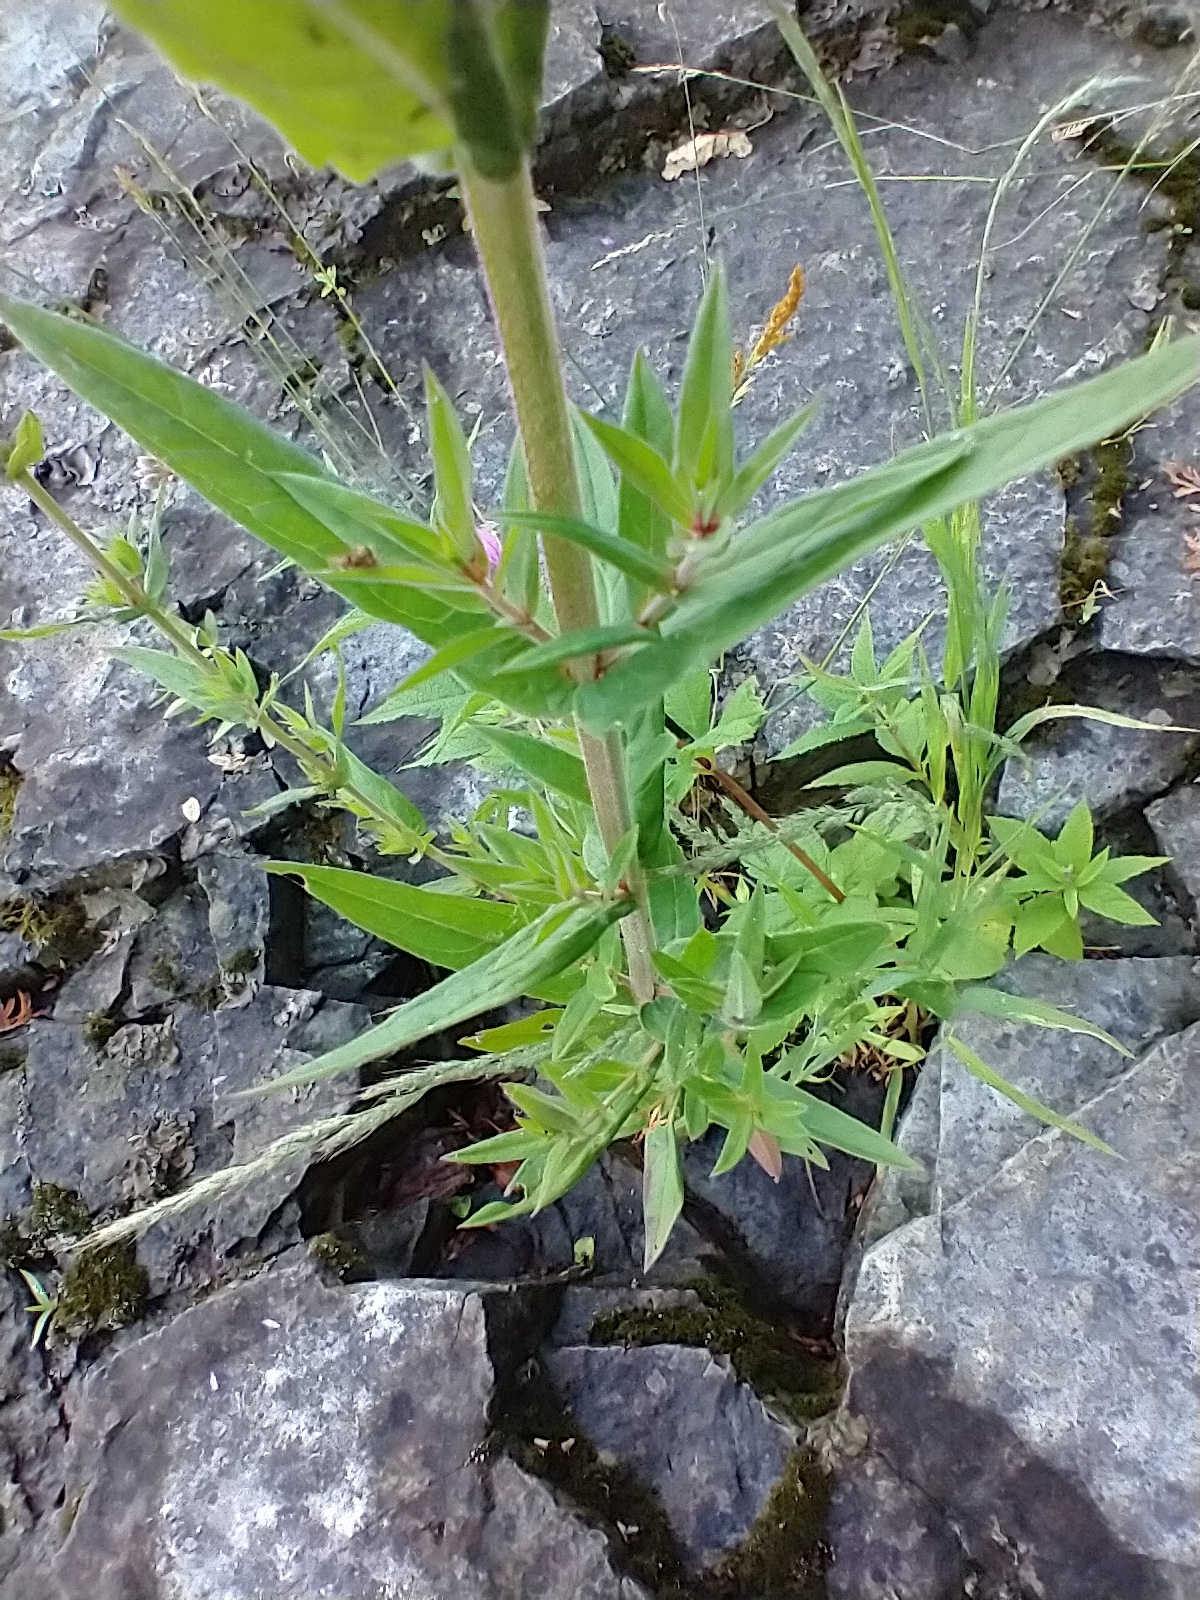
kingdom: Plantae
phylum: Tracheophyta
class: Magnoliopsida
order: Myrtales
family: Lythraceae
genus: Lythrum
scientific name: Lythrum salicaria
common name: Purple loosestrife
